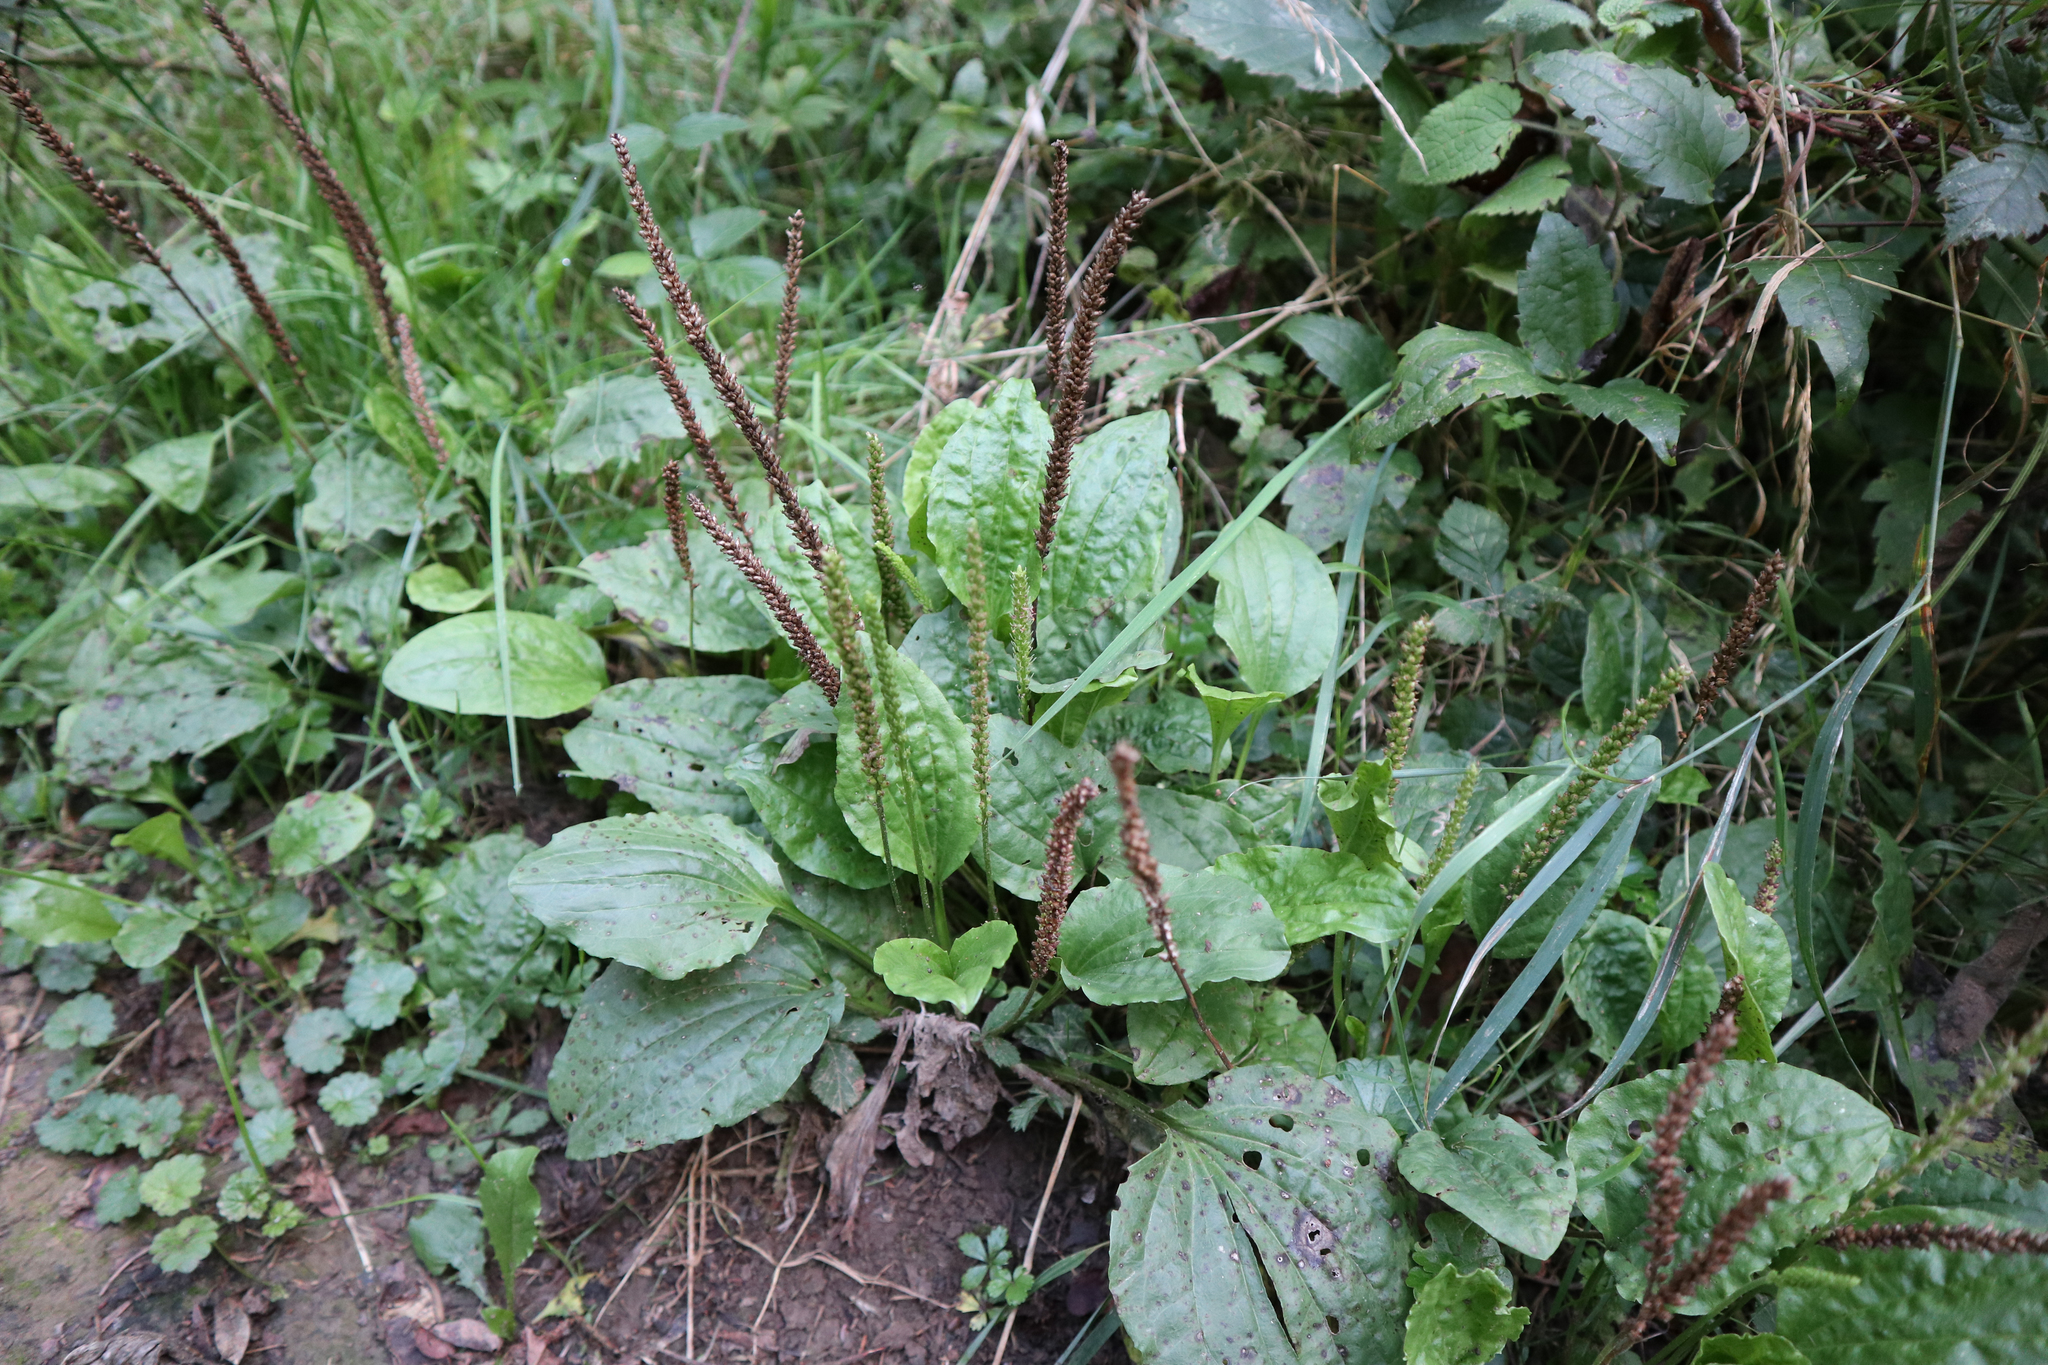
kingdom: Plantae
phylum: Tracheophyta
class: Magnoliopsida
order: Lamiales
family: Plantaginaceae
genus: Plantago
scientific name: Plantago major
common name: Common plantain
